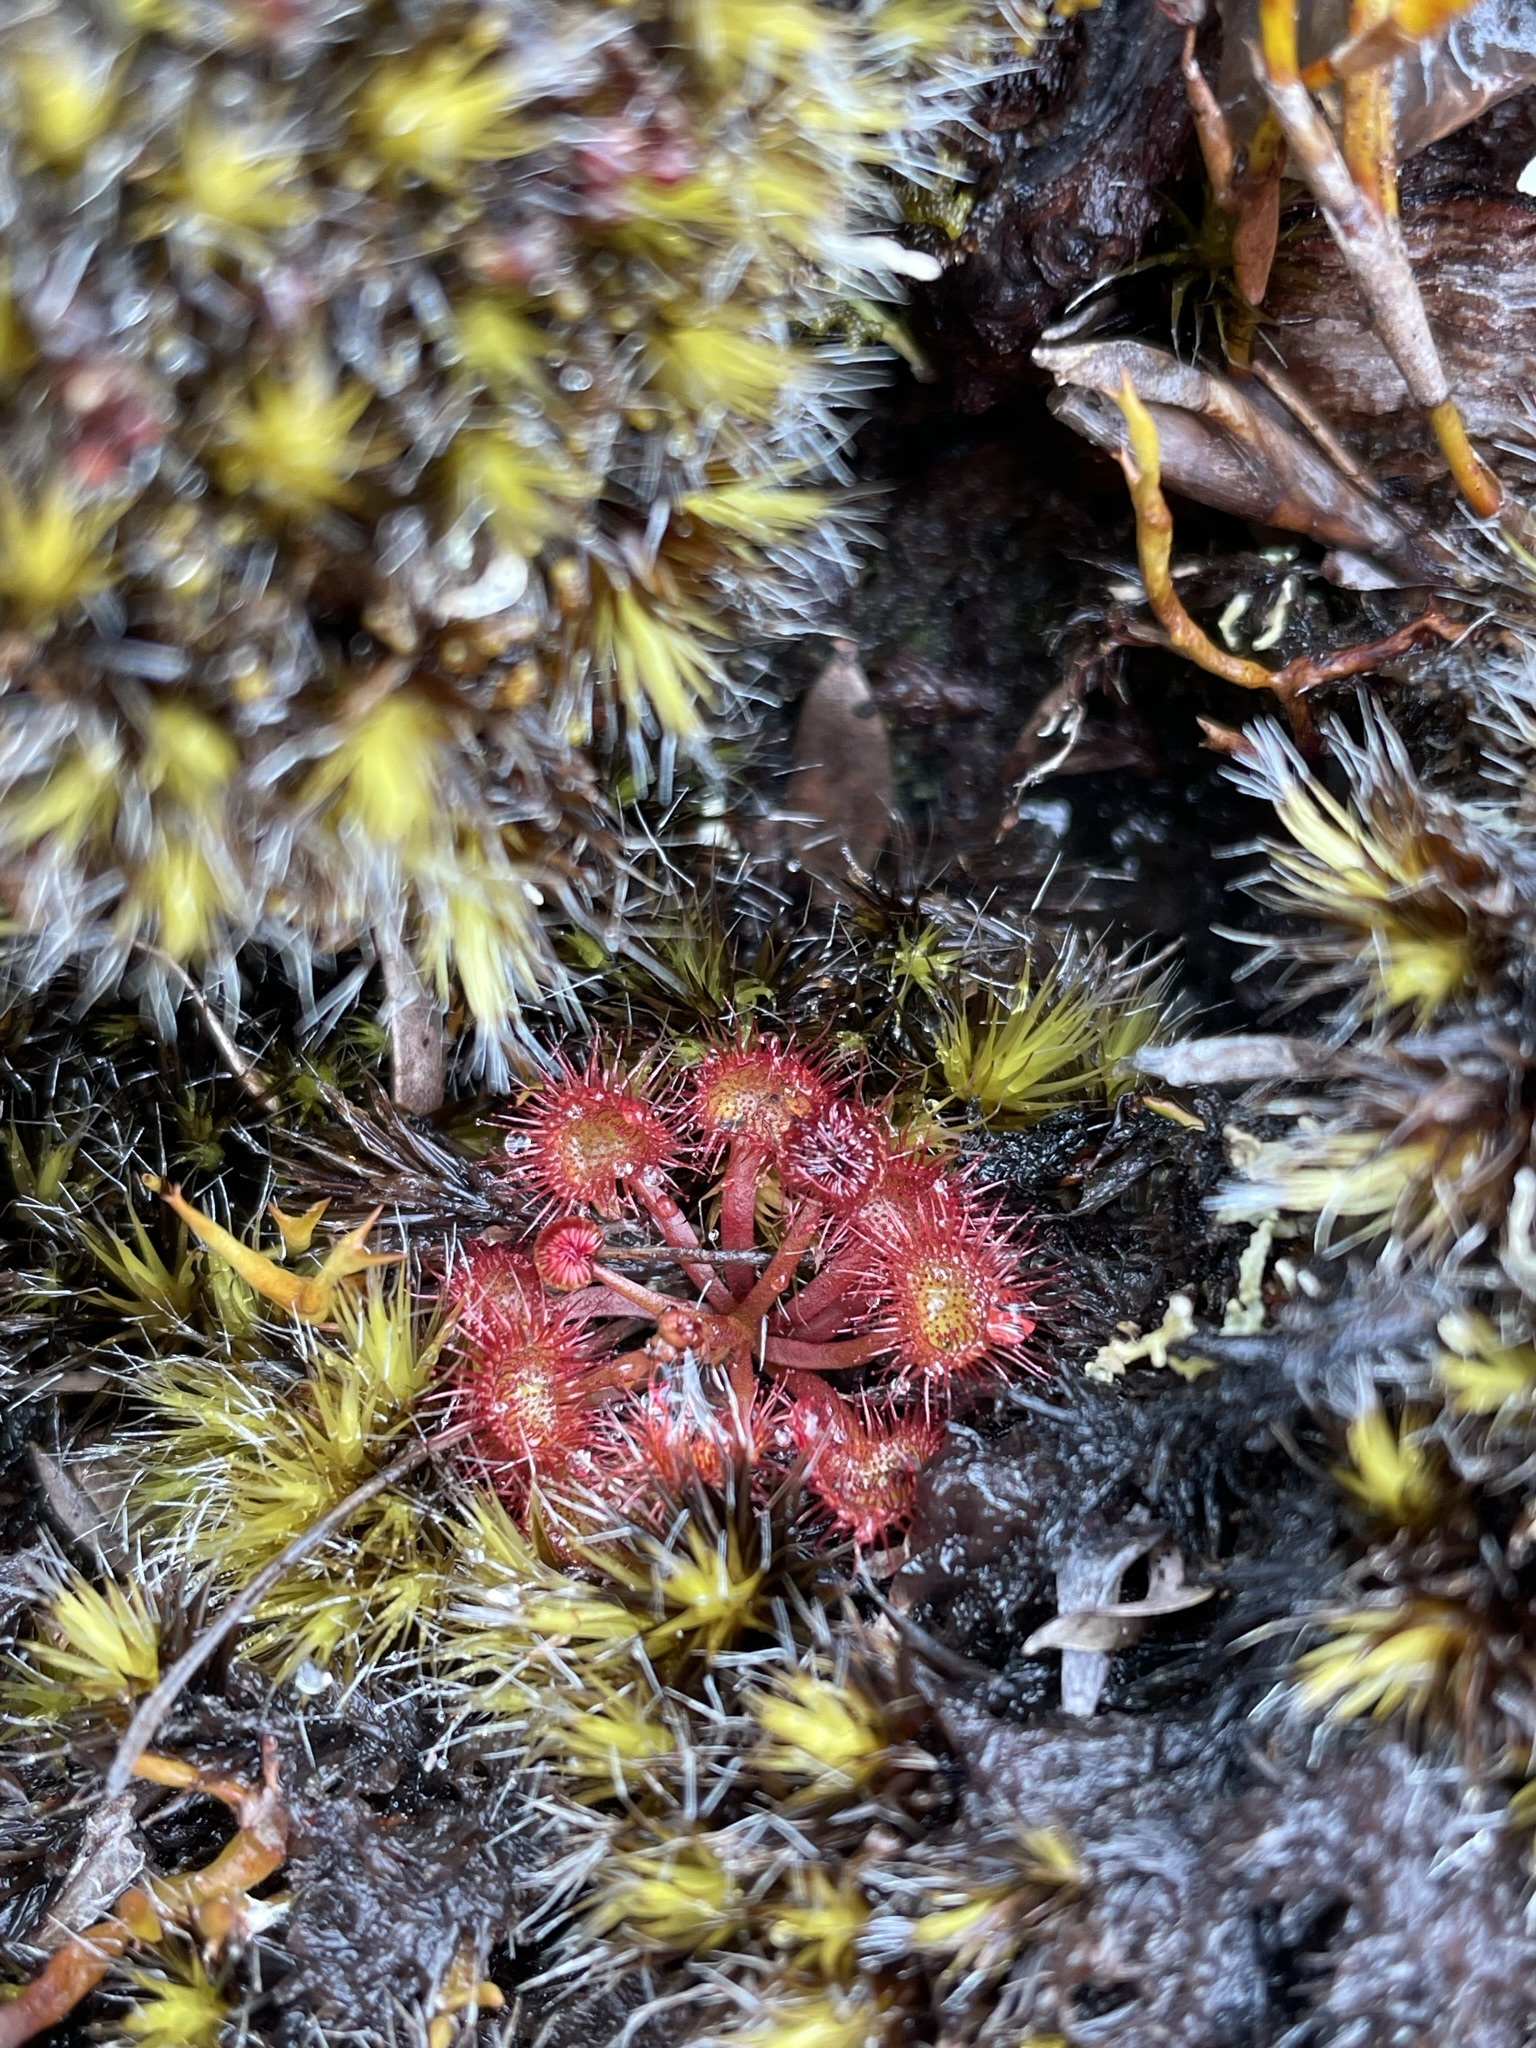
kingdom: Plantae
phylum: Tracheophyta
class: Magnoliopsida
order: Caryophyllales
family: Droseraceae
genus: Drosera
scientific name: Drosera peltata
